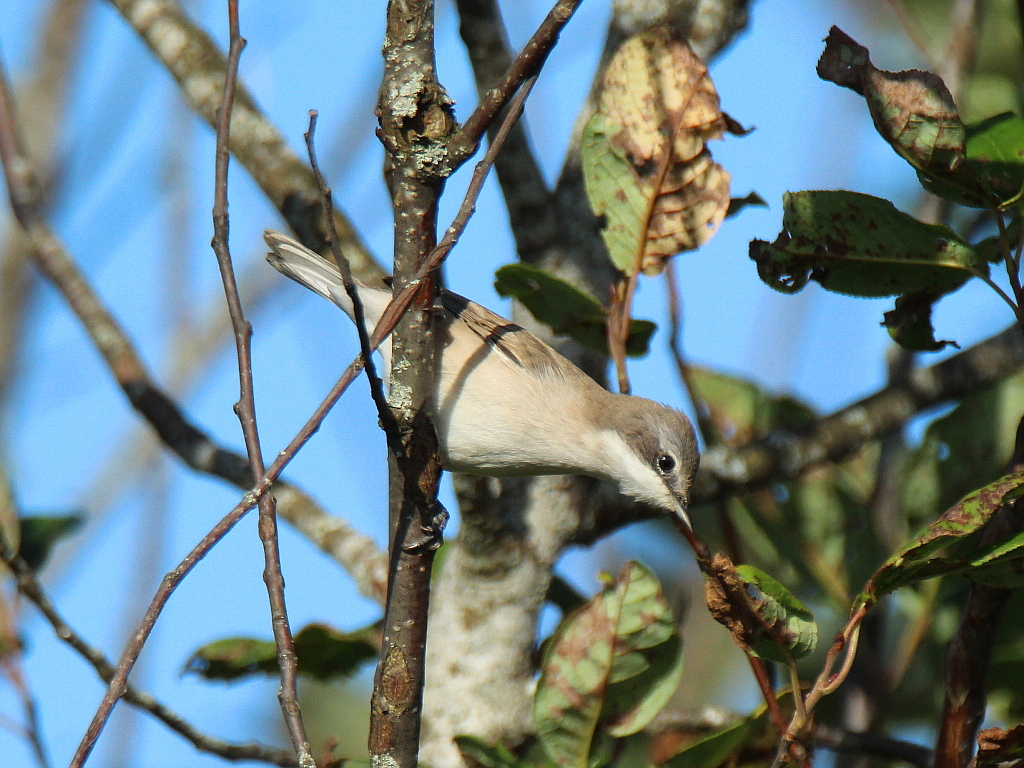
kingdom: Animalia
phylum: Chordata
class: Aves
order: Passeriformes
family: Sylviidae
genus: Sylvia
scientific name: Sylvia curruca
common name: Lesser whitethroat
